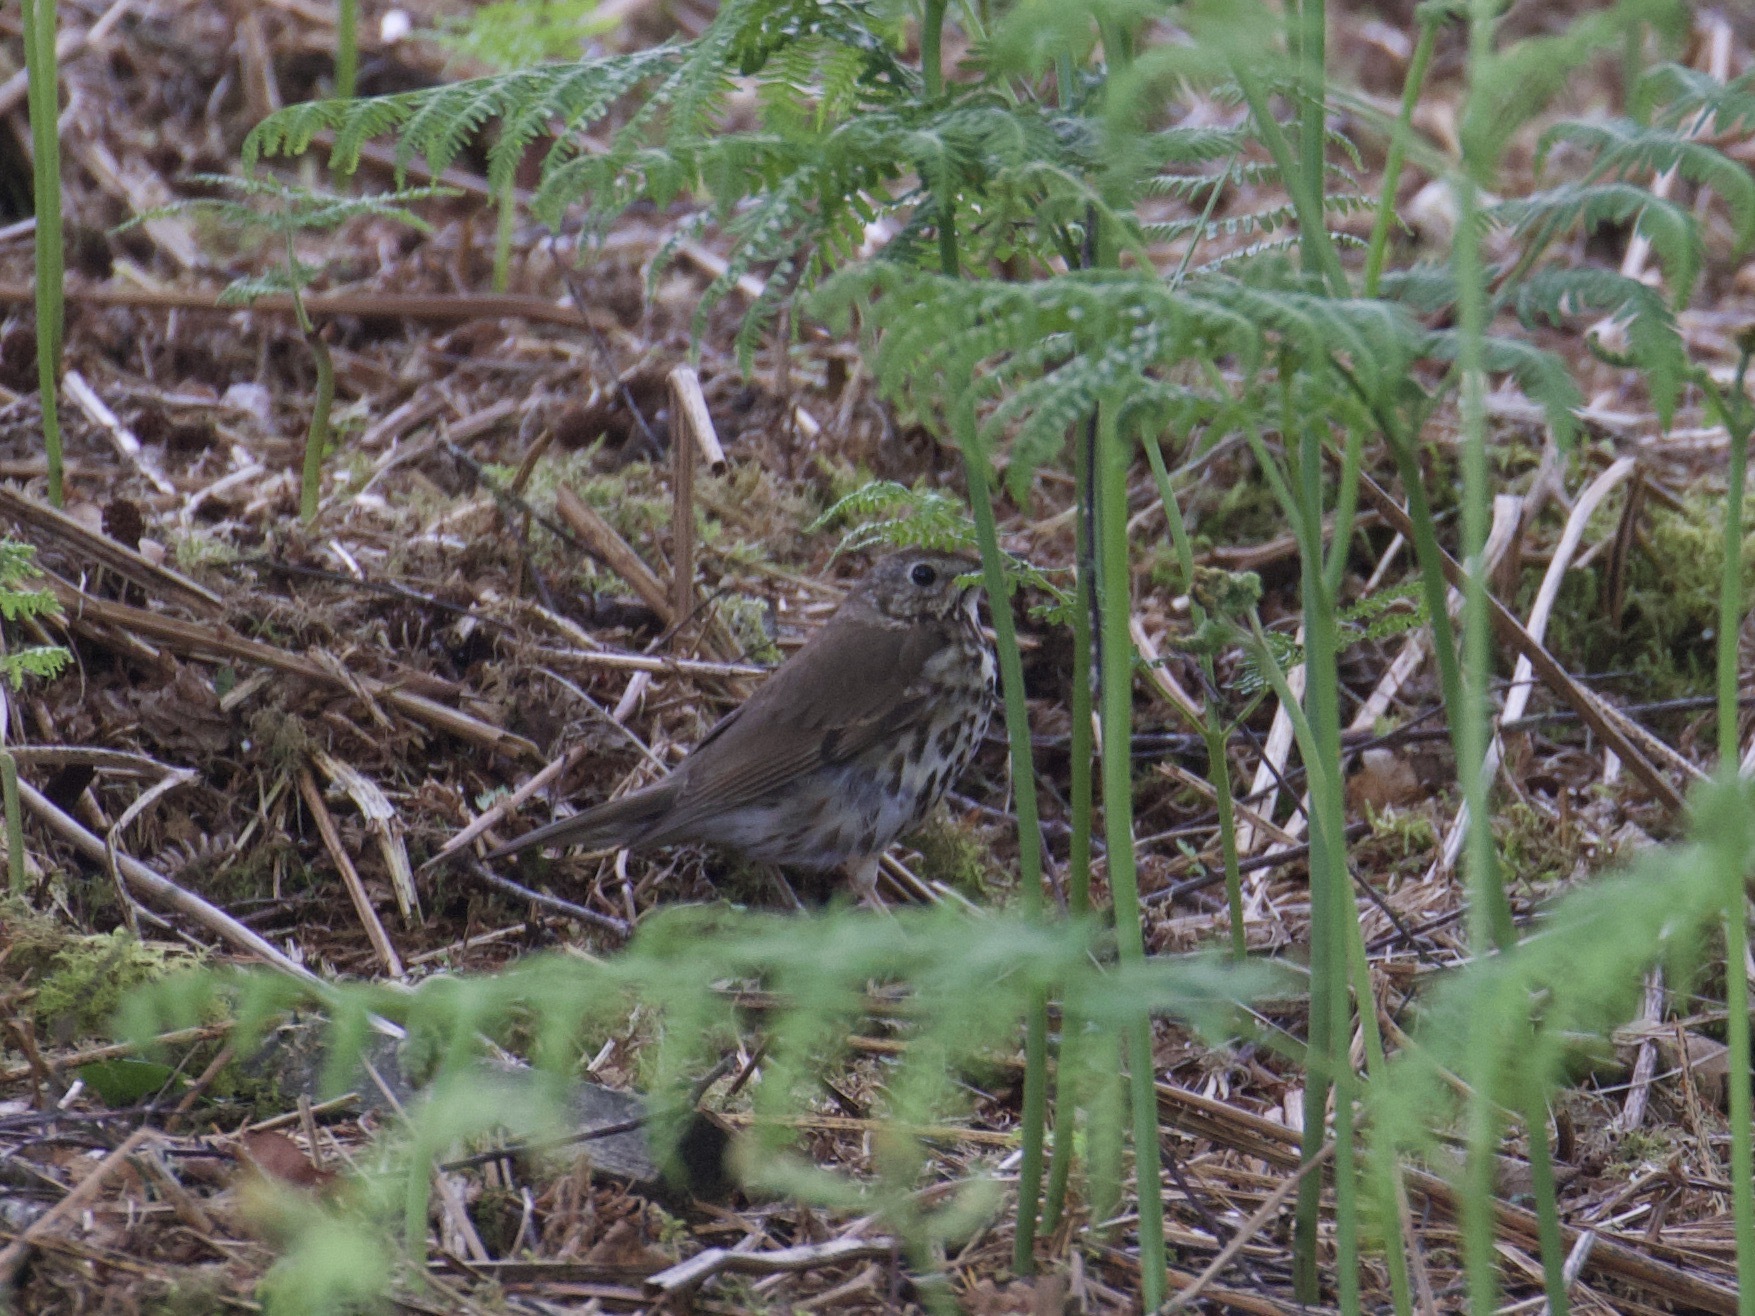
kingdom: Animalia
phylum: Chordata
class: Aves
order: Passeriformes
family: Turdidae
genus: Turdus
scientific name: Turdus philomelos
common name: Song thrush
